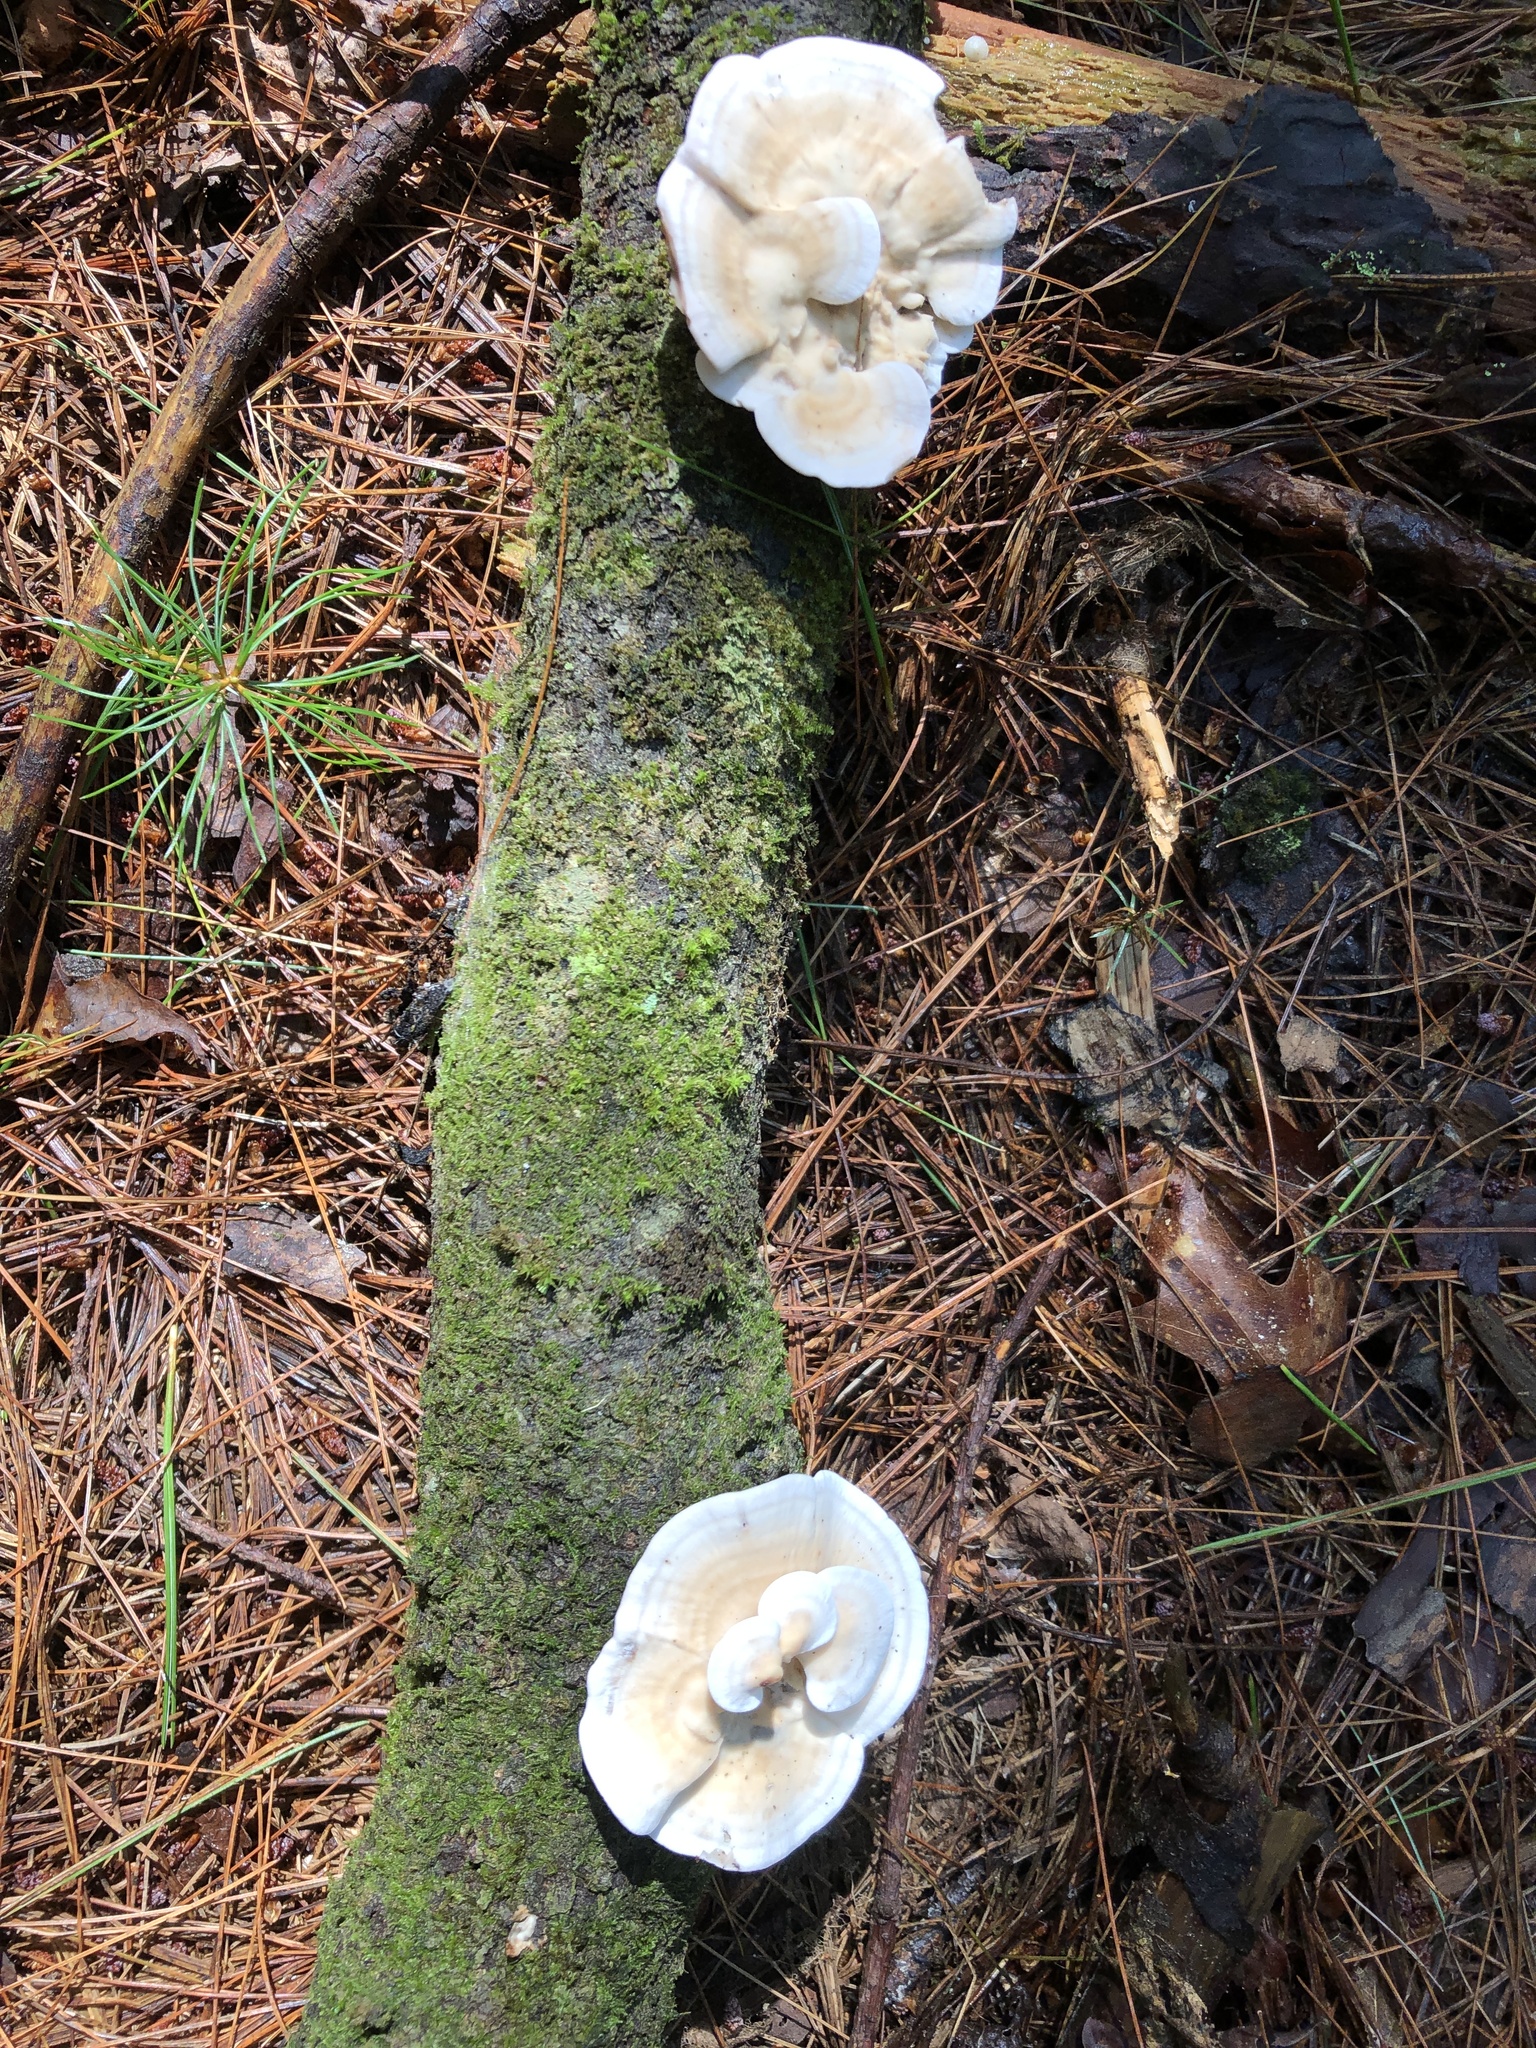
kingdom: Fungi
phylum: Basidiomycota
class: Agaricomycetes
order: Polyporales
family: Steccherinaceae
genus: Mycorrhaphium
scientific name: Mycorrhaphium adustum
